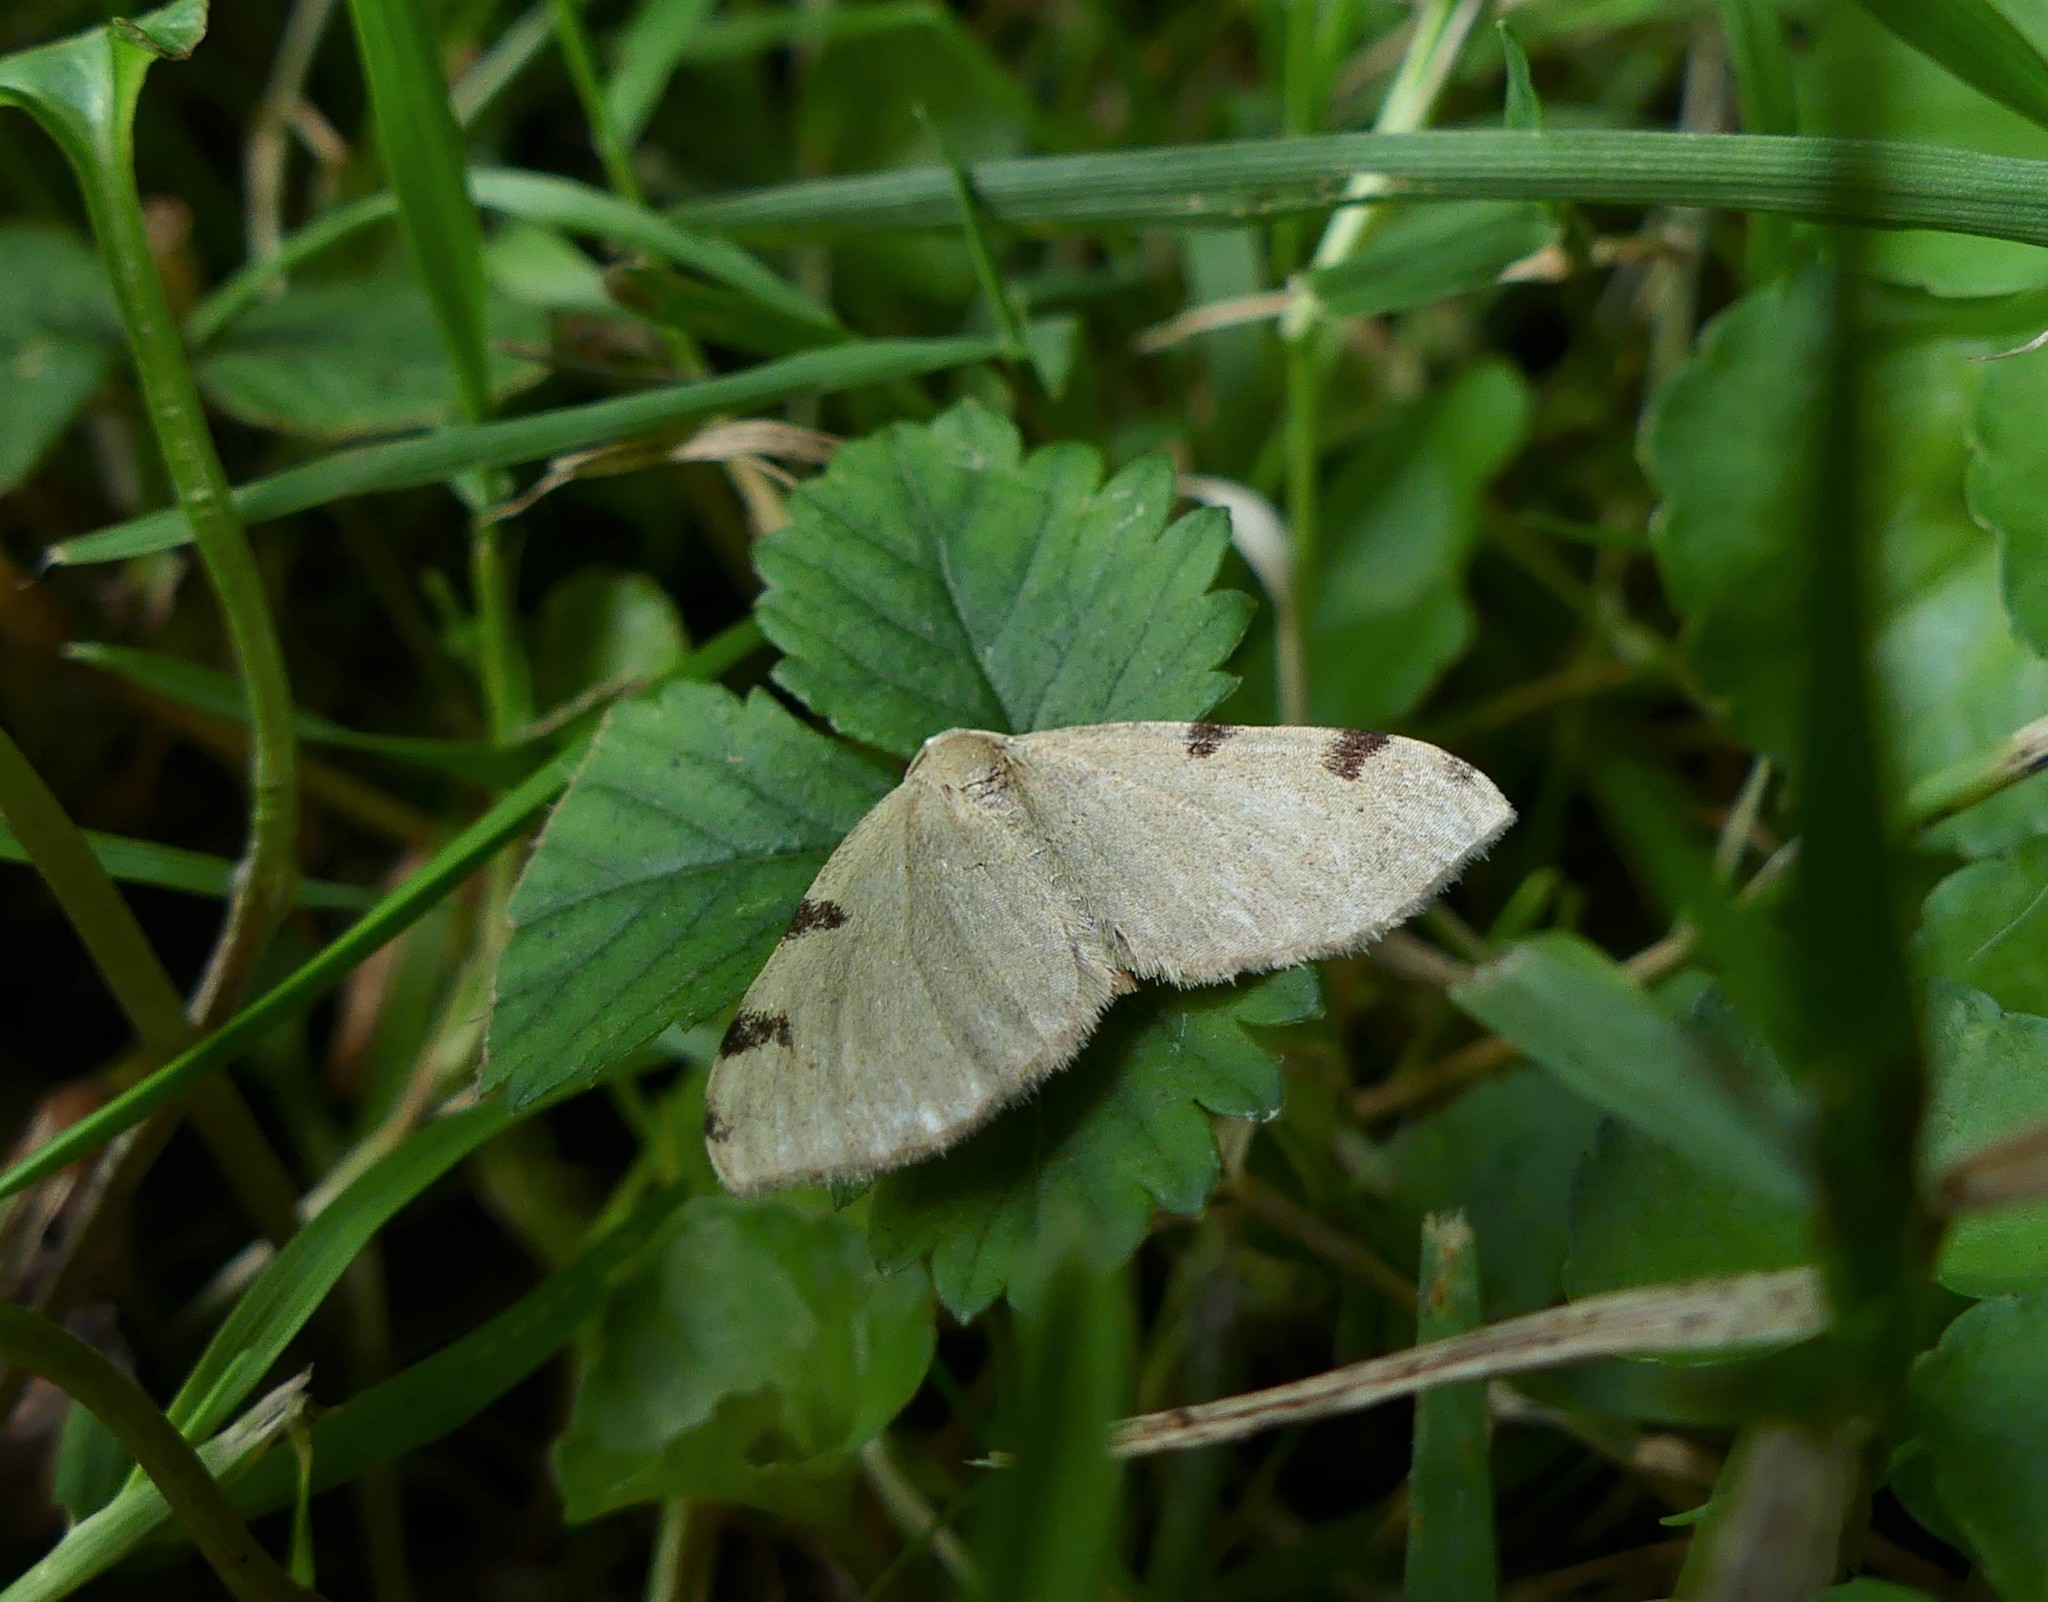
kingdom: Animalia
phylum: Arthropoda
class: Insecta
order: Lepidoptera
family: Geometridae
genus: Heterophleps
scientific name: Heterophleps triguttaria
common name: Three-spotted fillip
